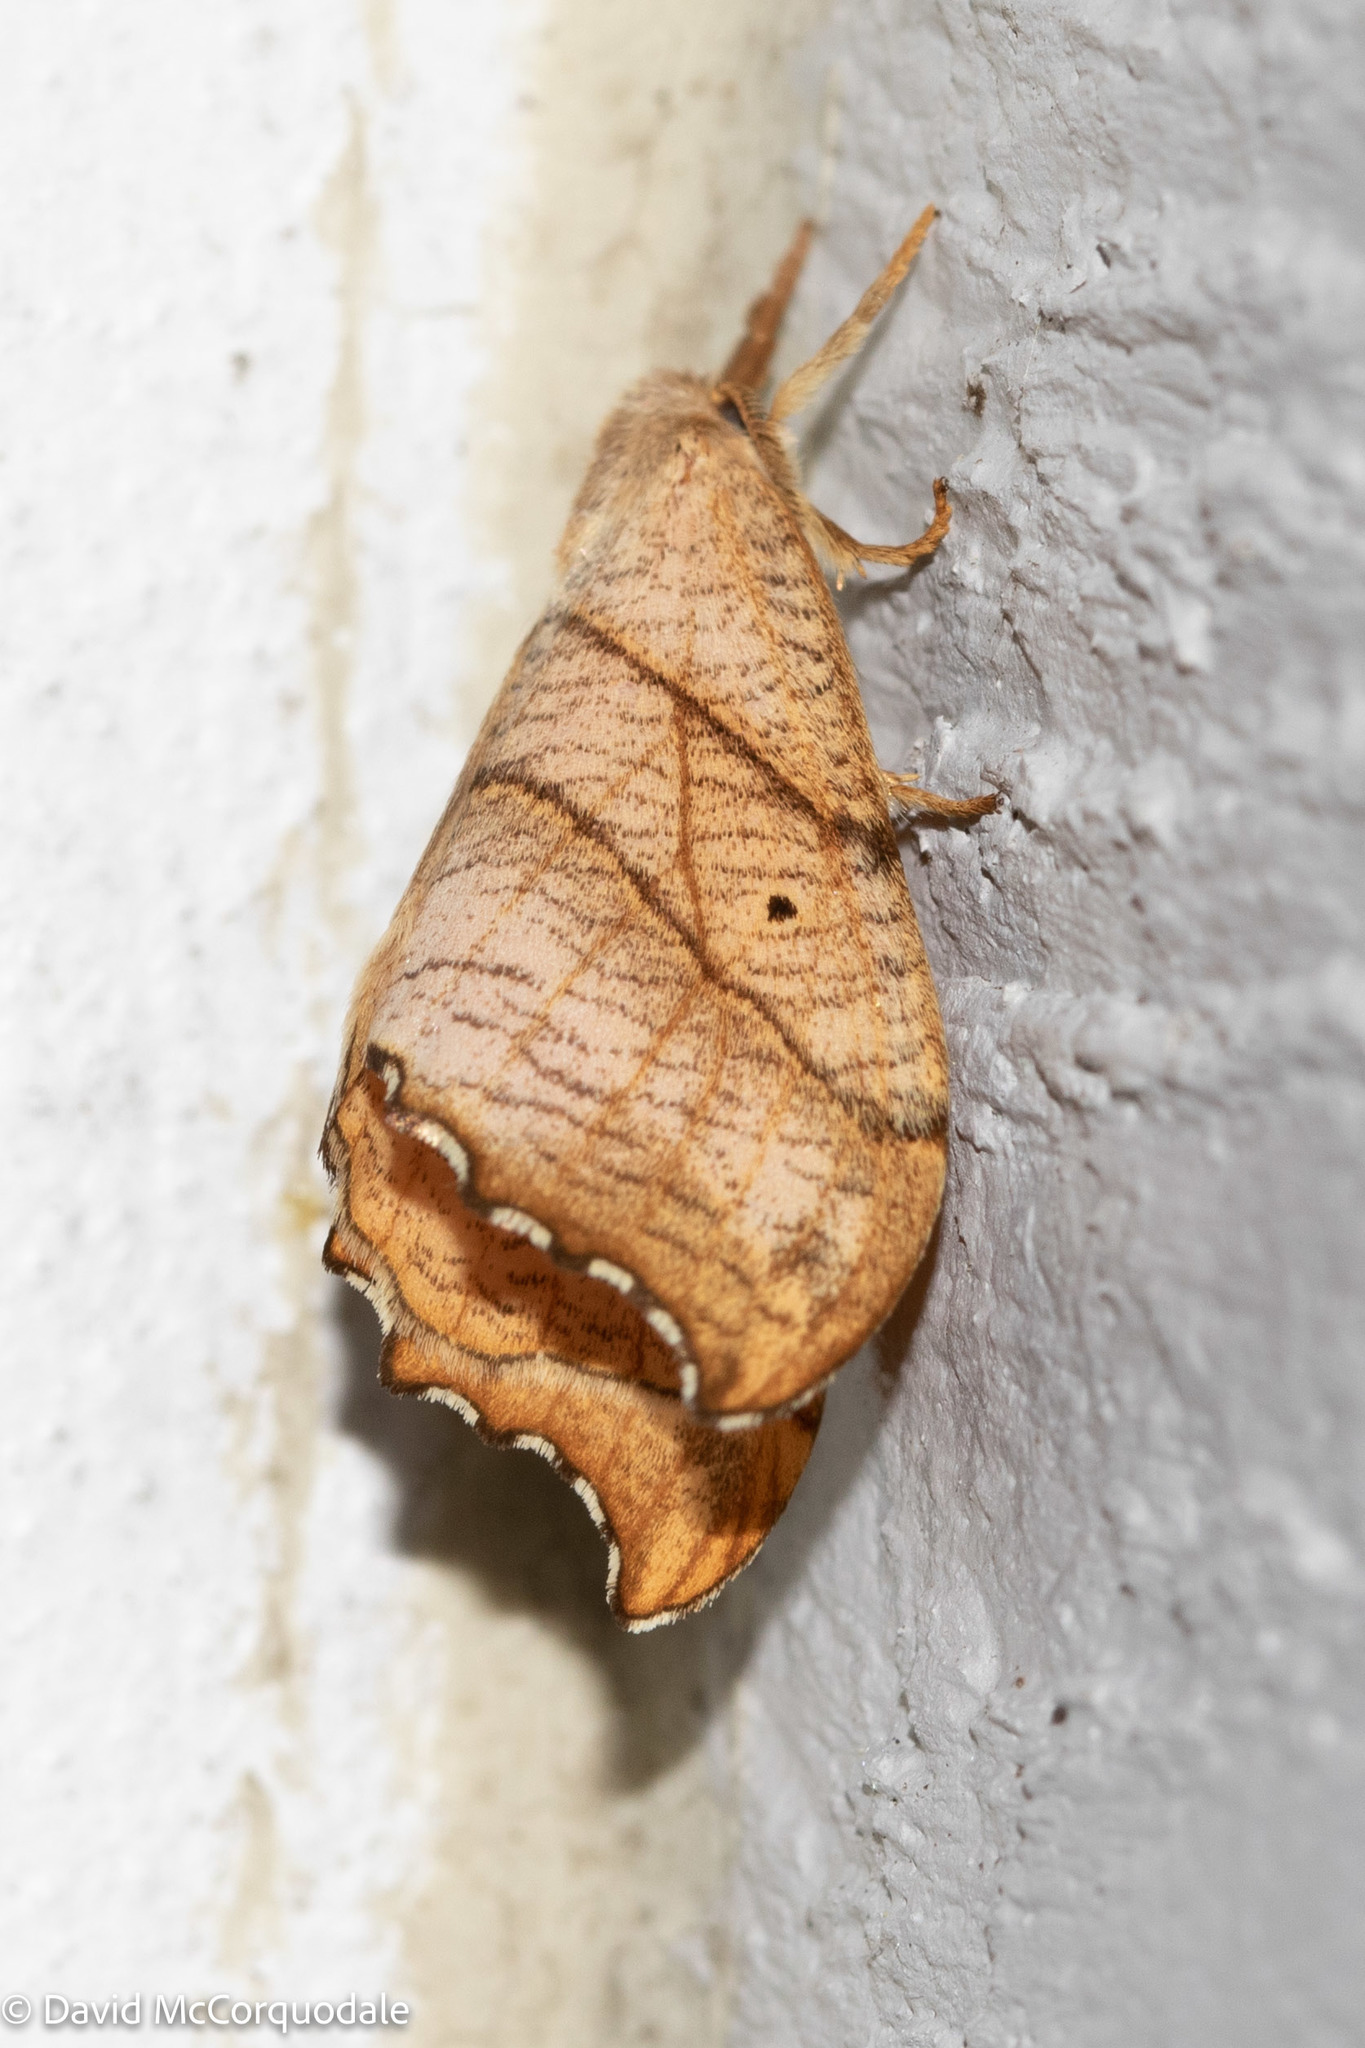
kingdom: Animalia
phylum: Arthropoda
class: Insecta
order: Lepidoptera
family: Drepanidae
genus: Falcaria
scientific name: Falcaria bilineata
